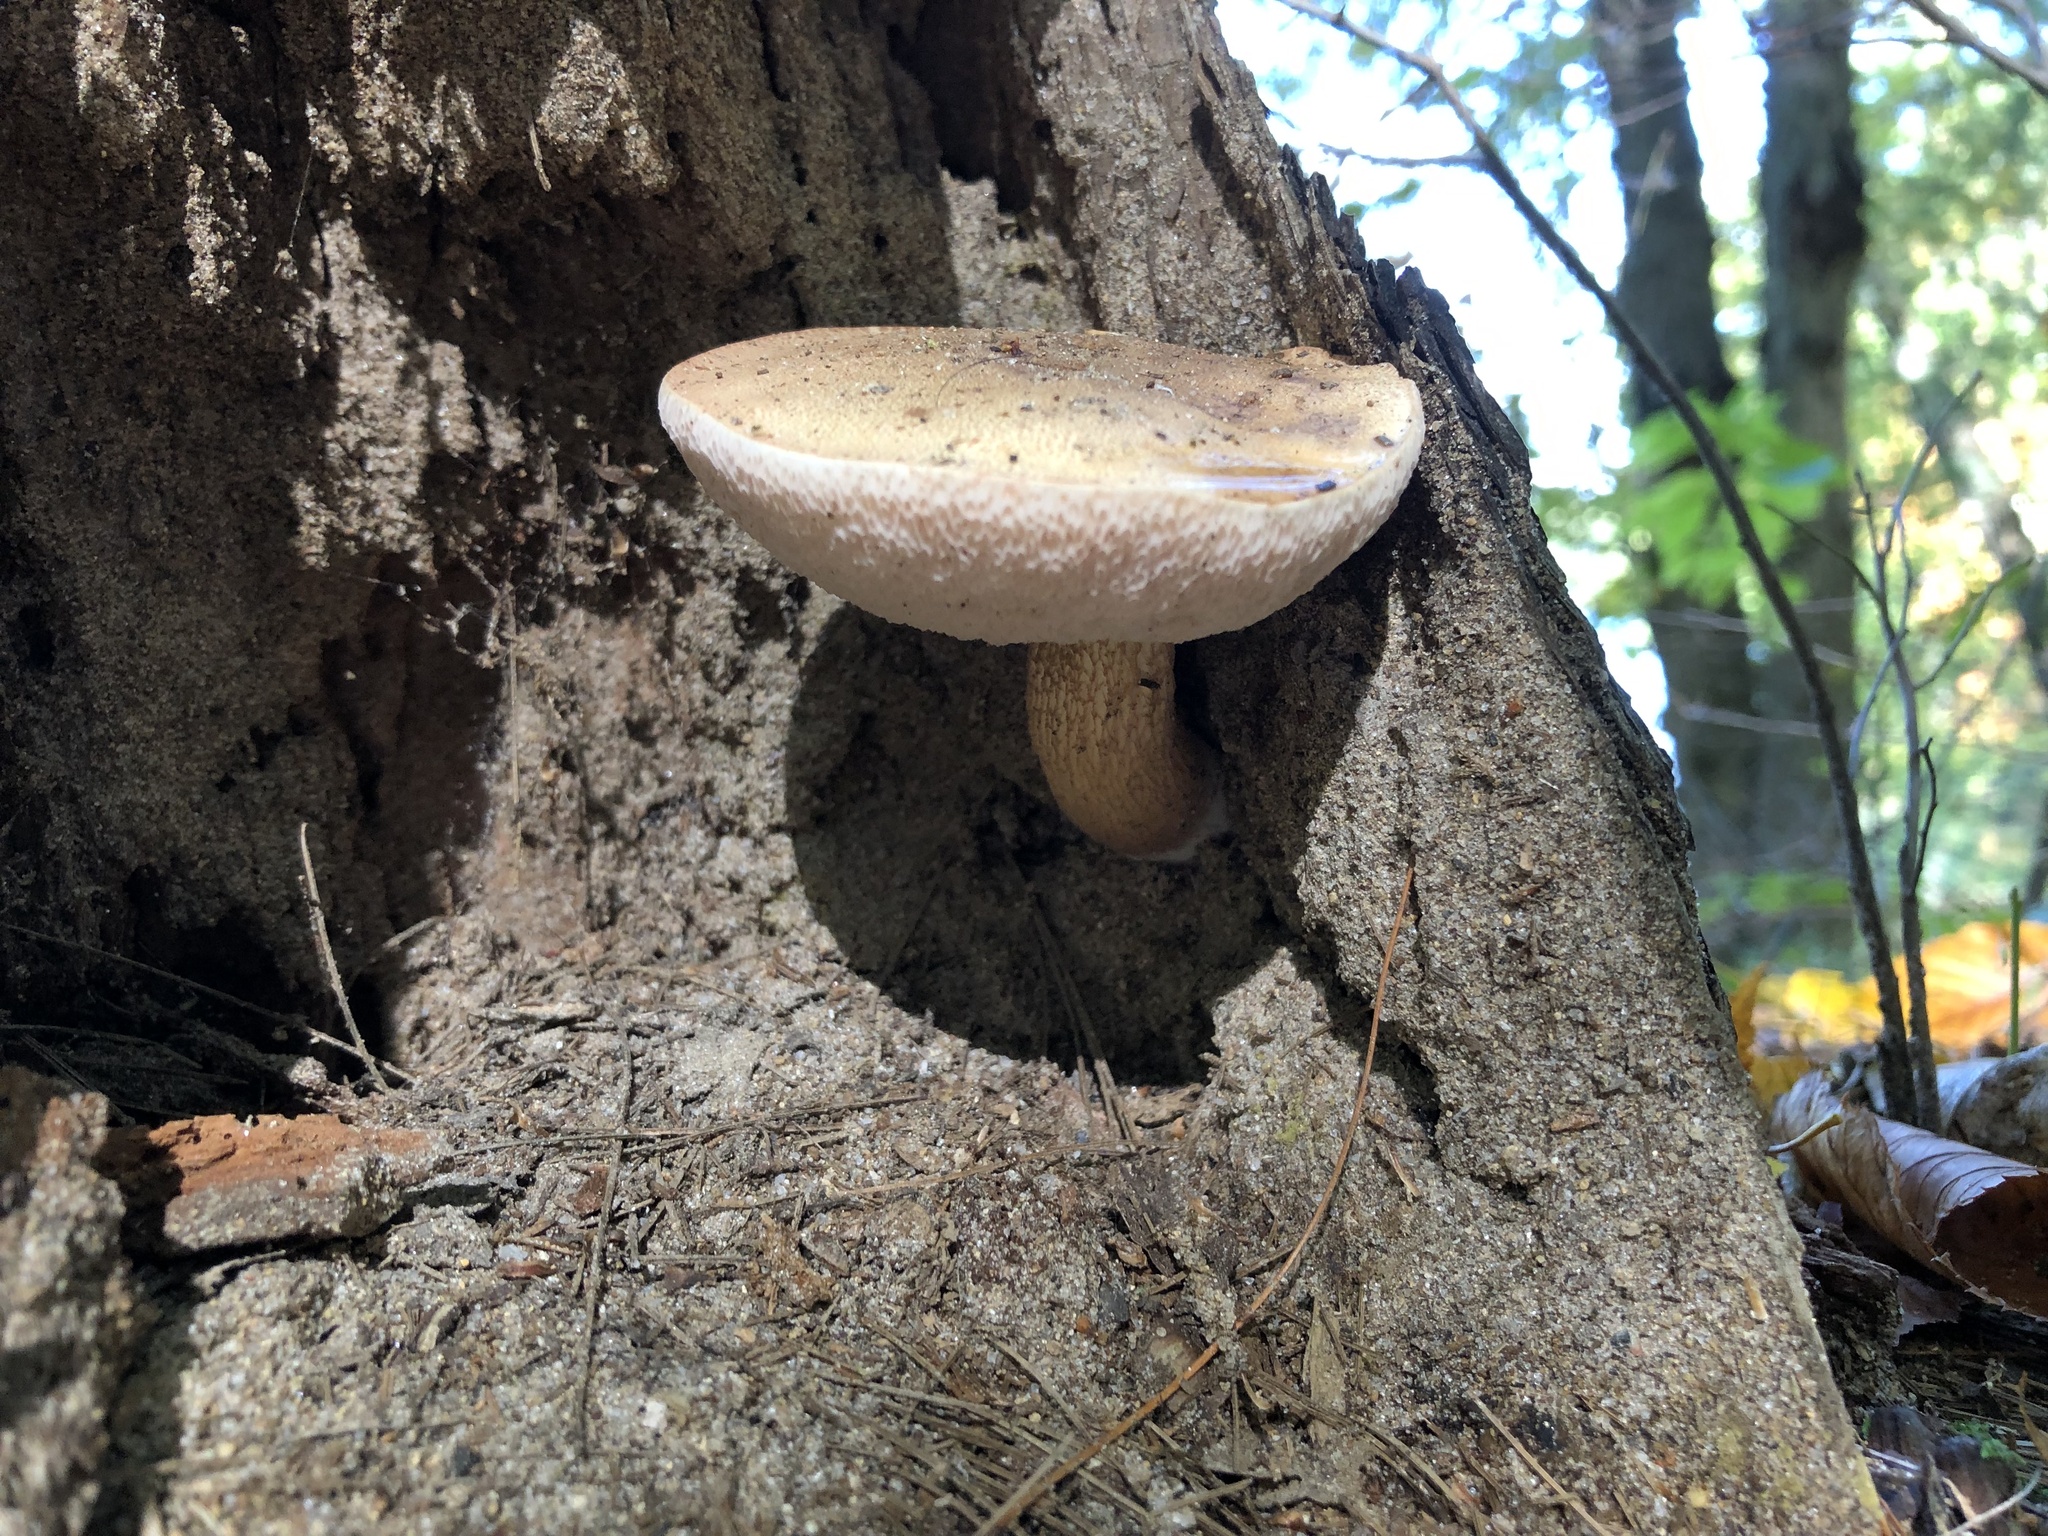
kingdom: Fungi
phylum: Basidiomycota
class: Agaricomycetes
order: Boletales
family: Boletaceae
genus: Tylopilus
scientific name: Tylopilus felleus
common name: Bitter bolete
